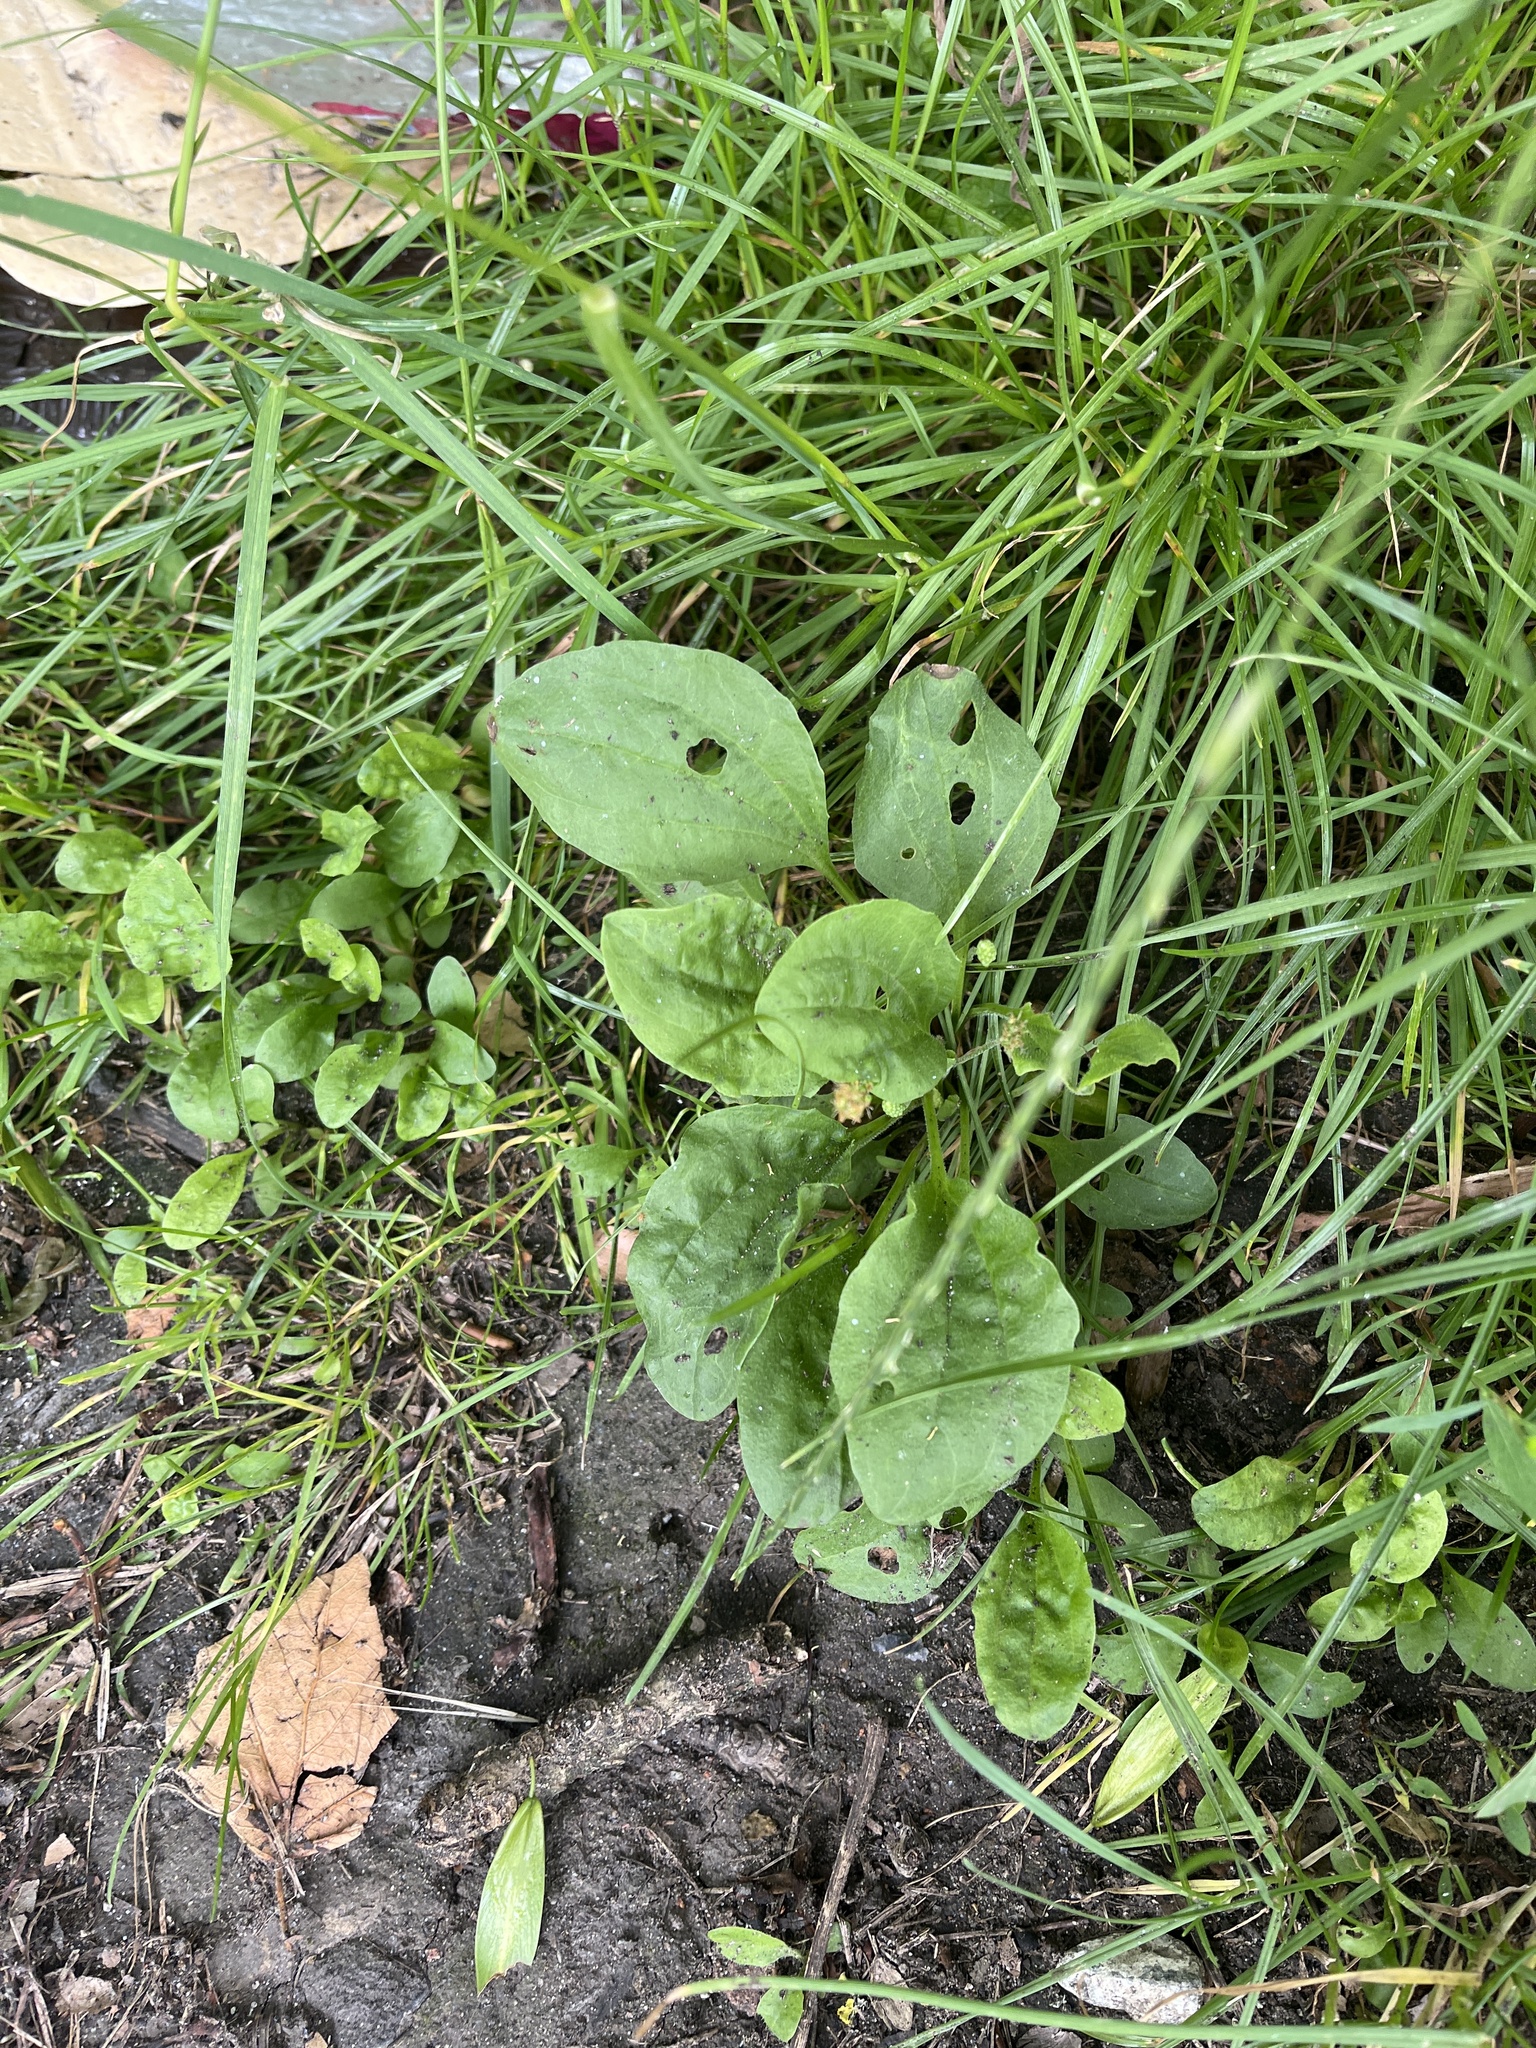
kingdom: Plantae
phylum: Tracheophyta
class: Magnoliopsida
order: Lamiales
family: Plantaginaceae
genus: Plantago
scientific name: Plantago major
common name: Common plantain
